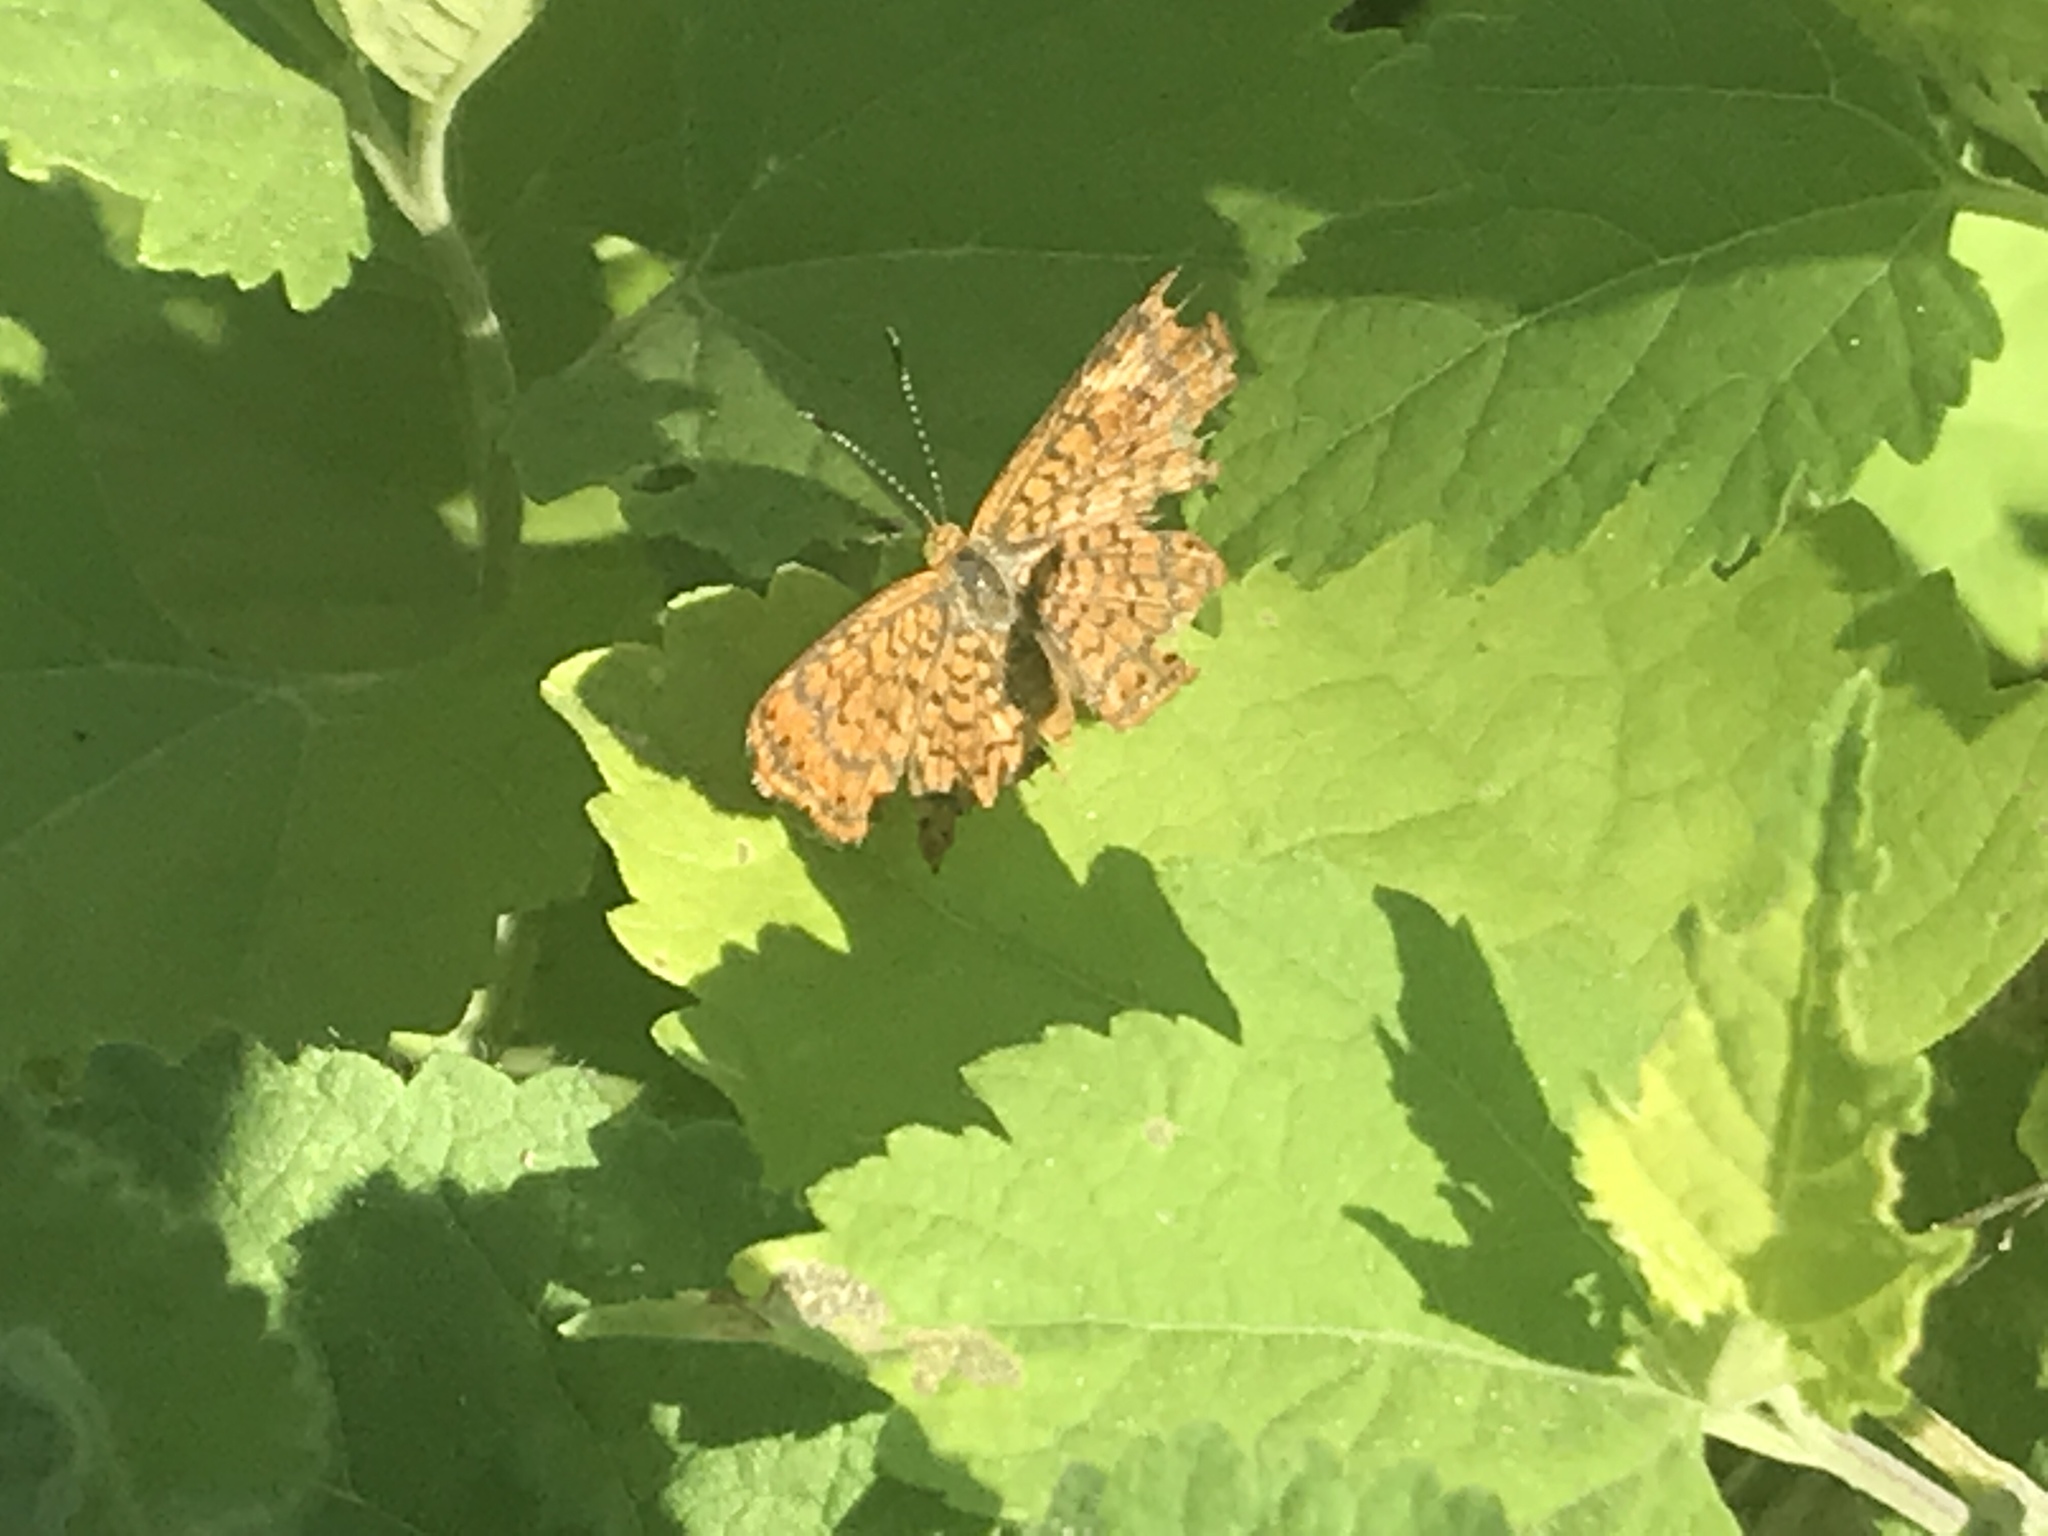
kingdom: Animalia
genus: Calephelis
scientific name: Calephelis nemesis
